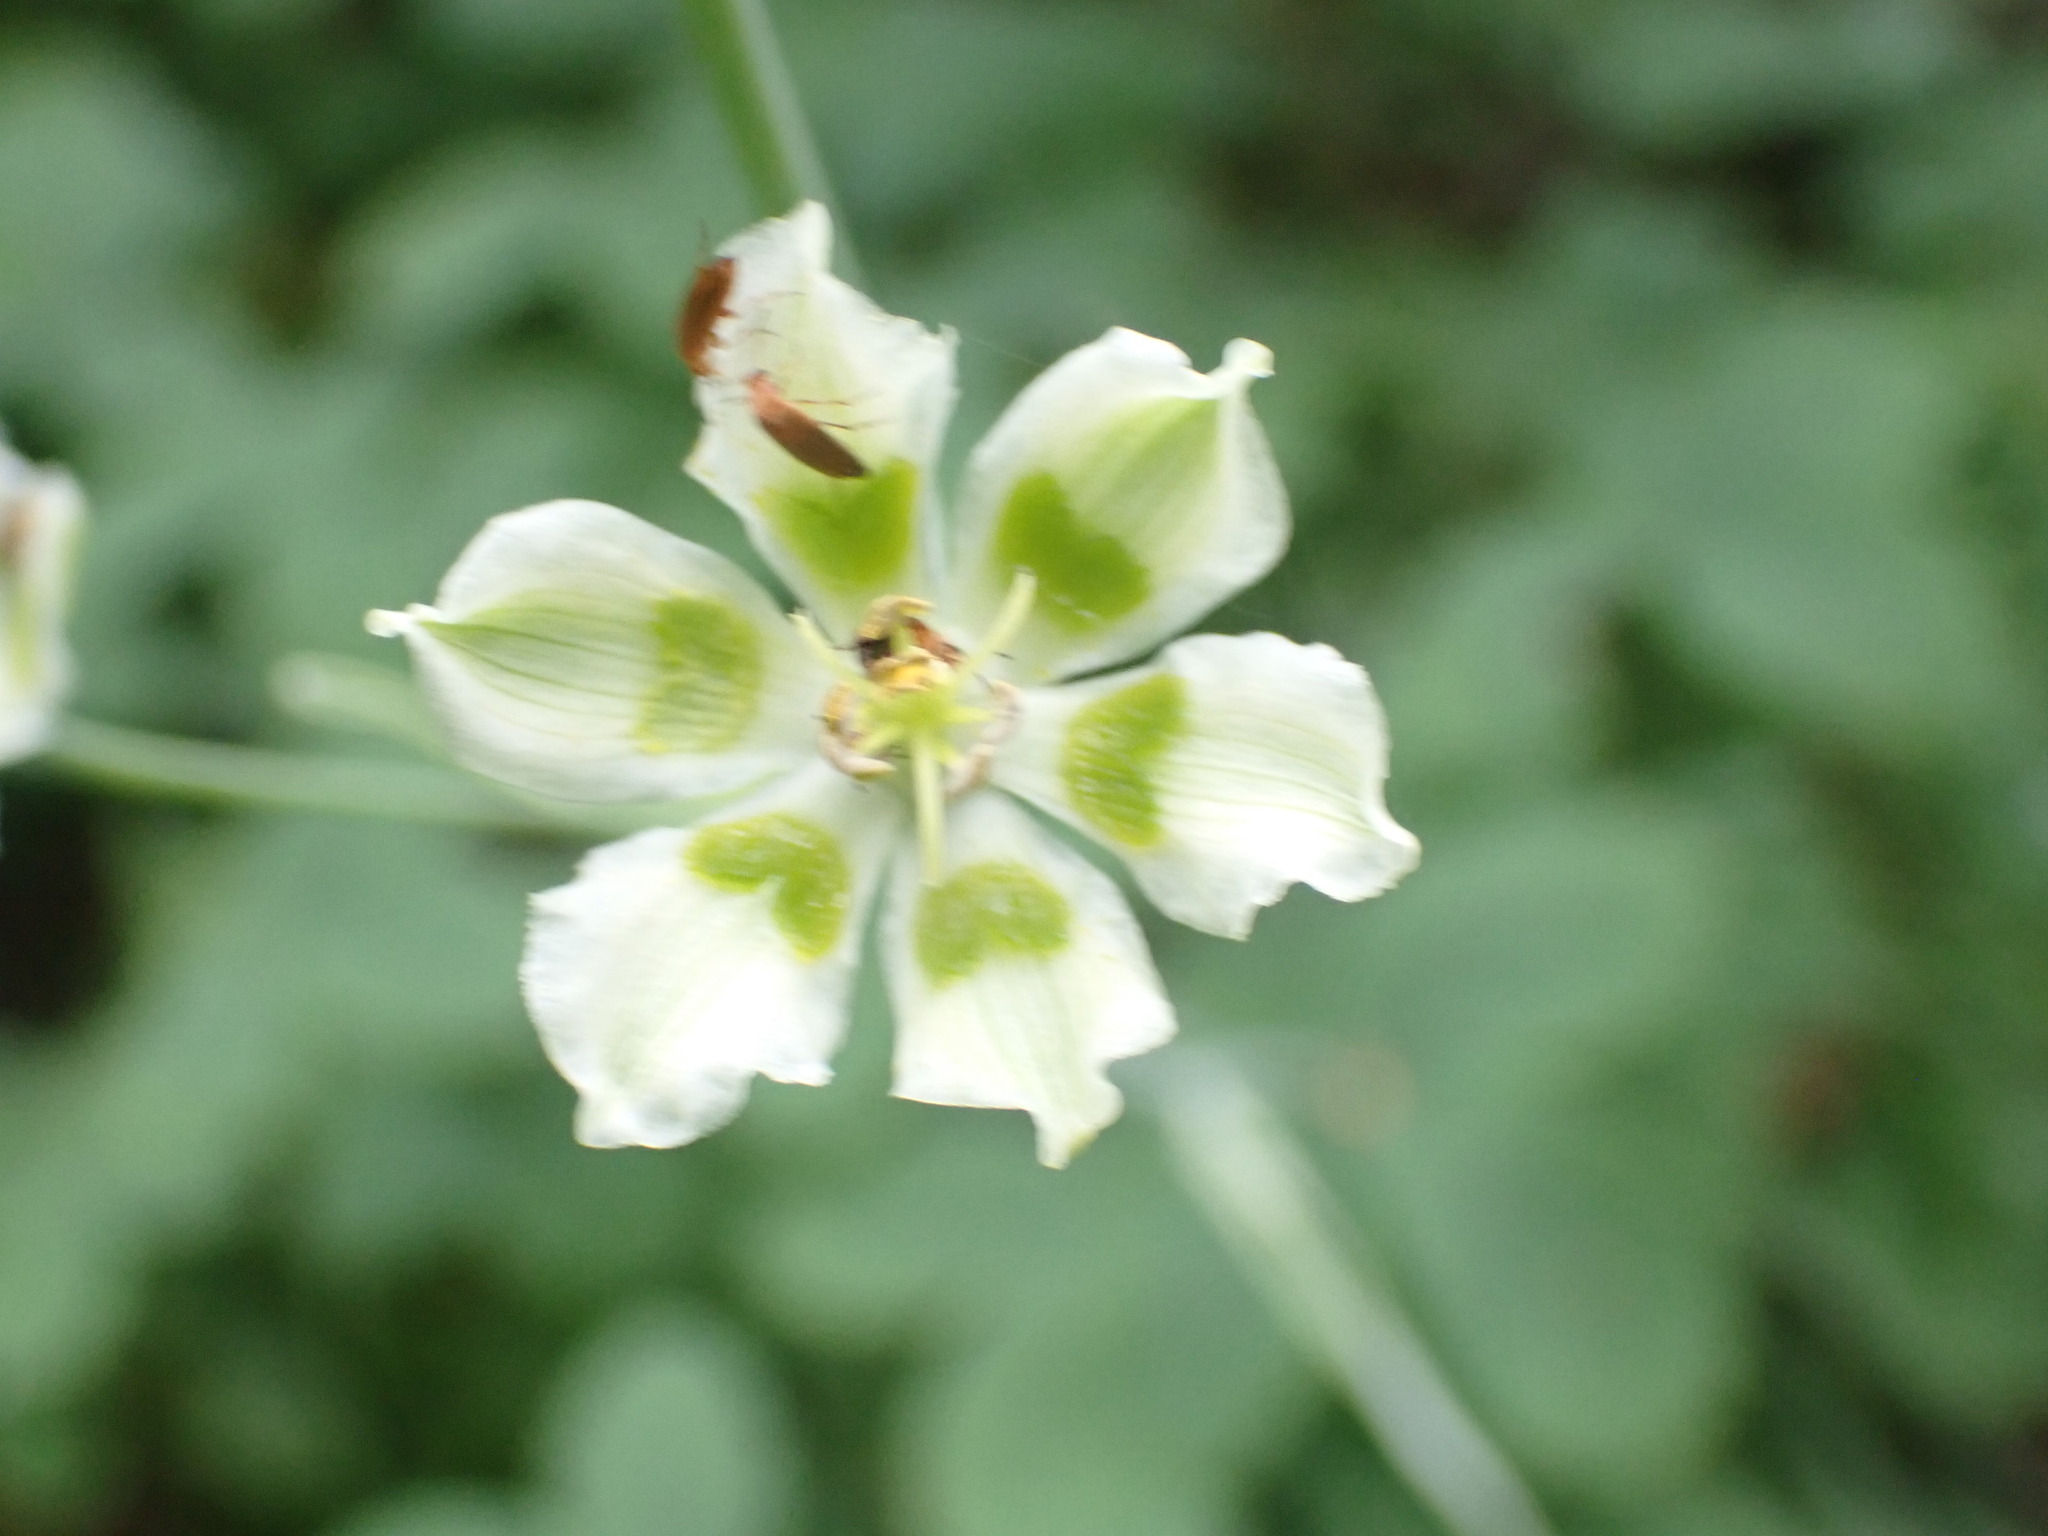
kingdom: Plantae
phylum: Tracheophyta
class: Liliopsida
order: Liliales
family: Melanthiaceae
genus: Anticlea
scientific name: Anticlea elegans
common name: Mountain death camas
